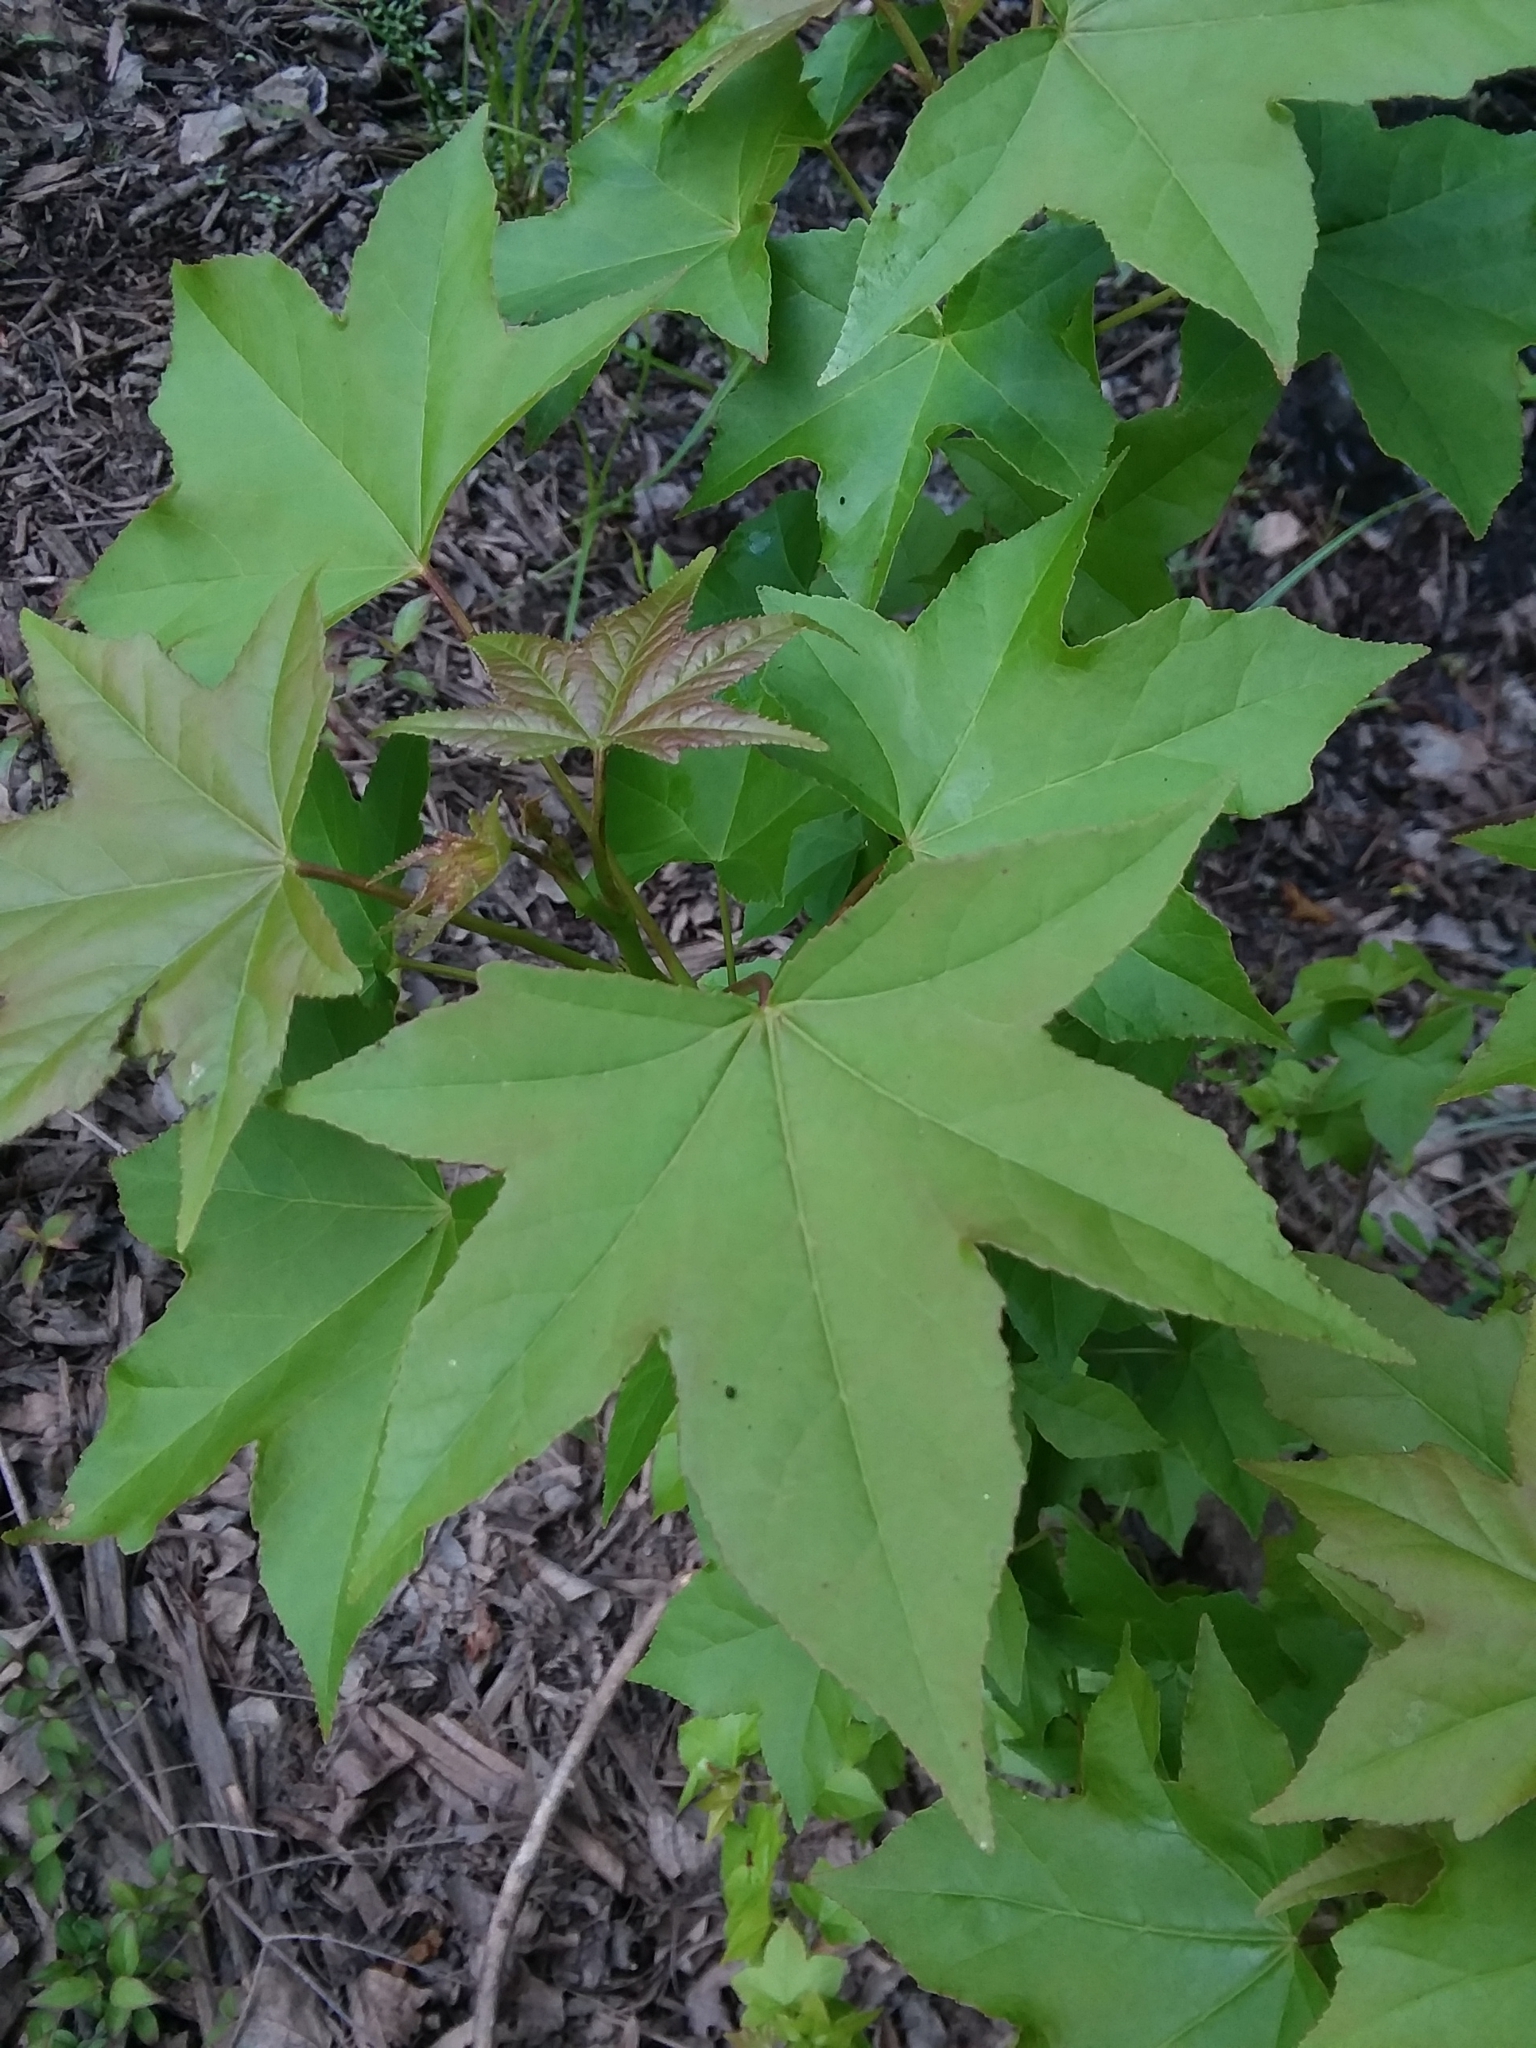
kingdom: Plantae
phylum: Tracheophyta
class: Magnoliopsida
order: Saxifragales
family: Altingiaceae
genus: Liquidambar
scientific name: Liquidambar styraciflua
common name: Sweet gum
